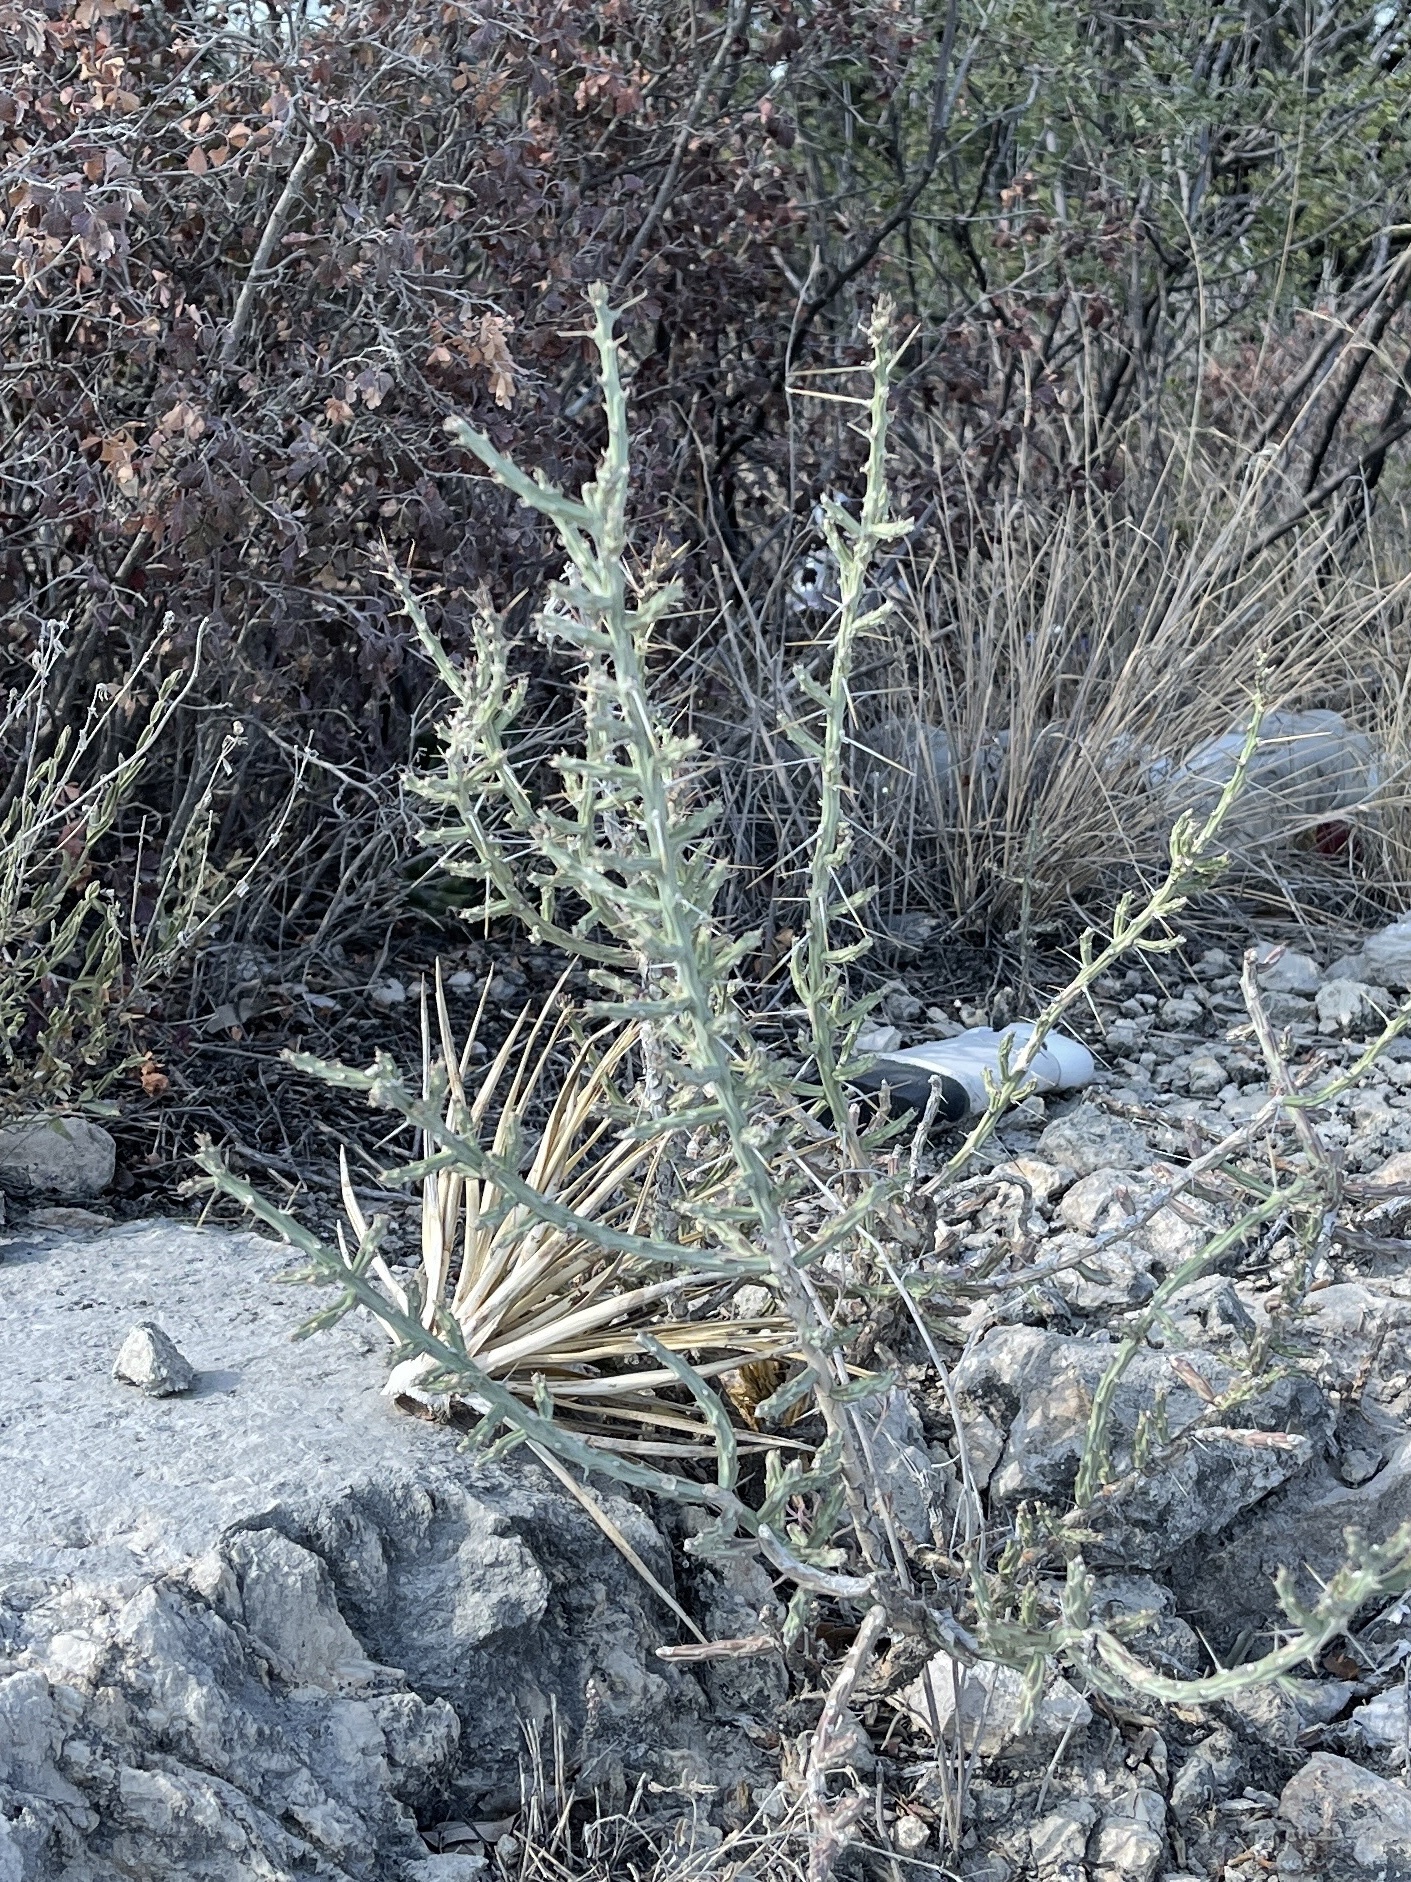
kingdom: Plantae
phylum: Tracheophyta
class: Magnoliopsida
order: Caryophyllales
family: Cactaceae
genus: Cylindropuntia
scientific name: Cylindropuntia leptocaulis
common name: Christmas cactus
